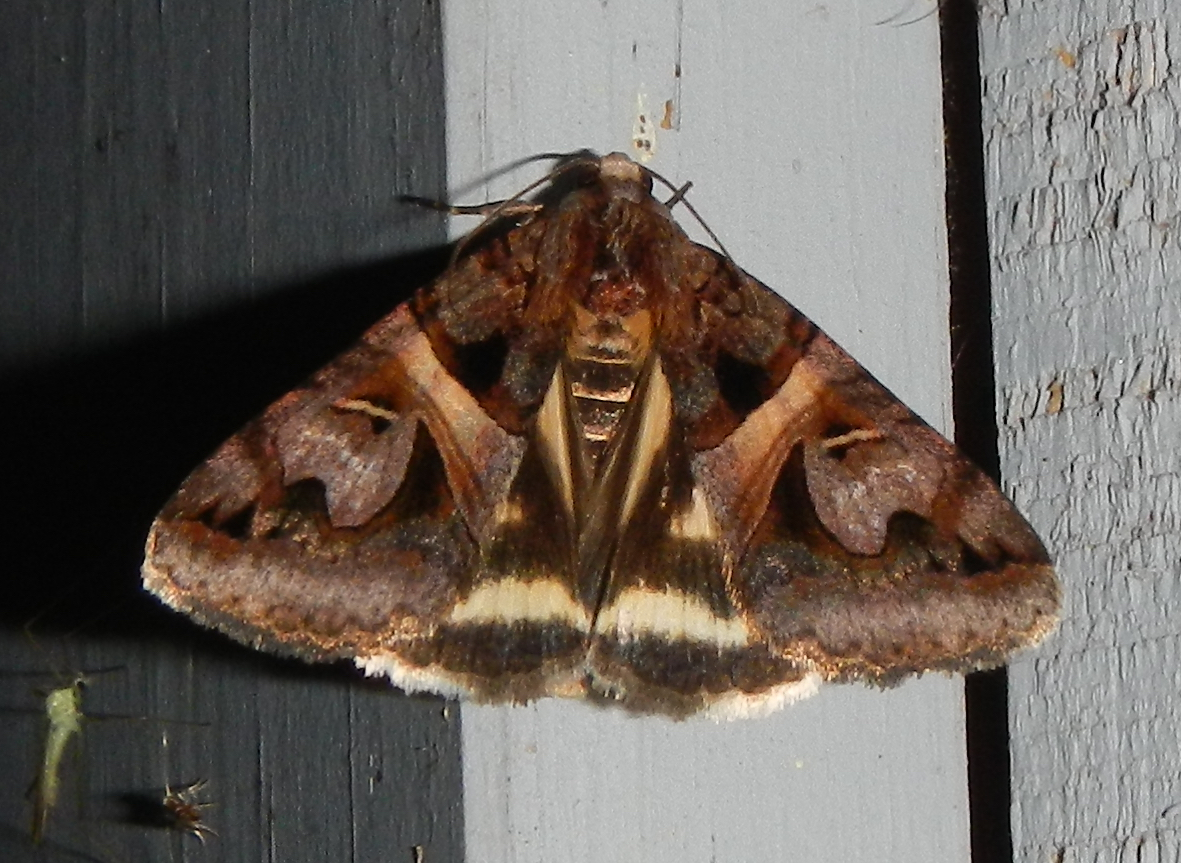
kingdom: Animalia
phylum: Arthropoda
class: Insecta
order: Lepidoptera
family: Erebidae
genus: Drasteria
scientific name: Drasteria grandirena
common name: Figure-seven moth
